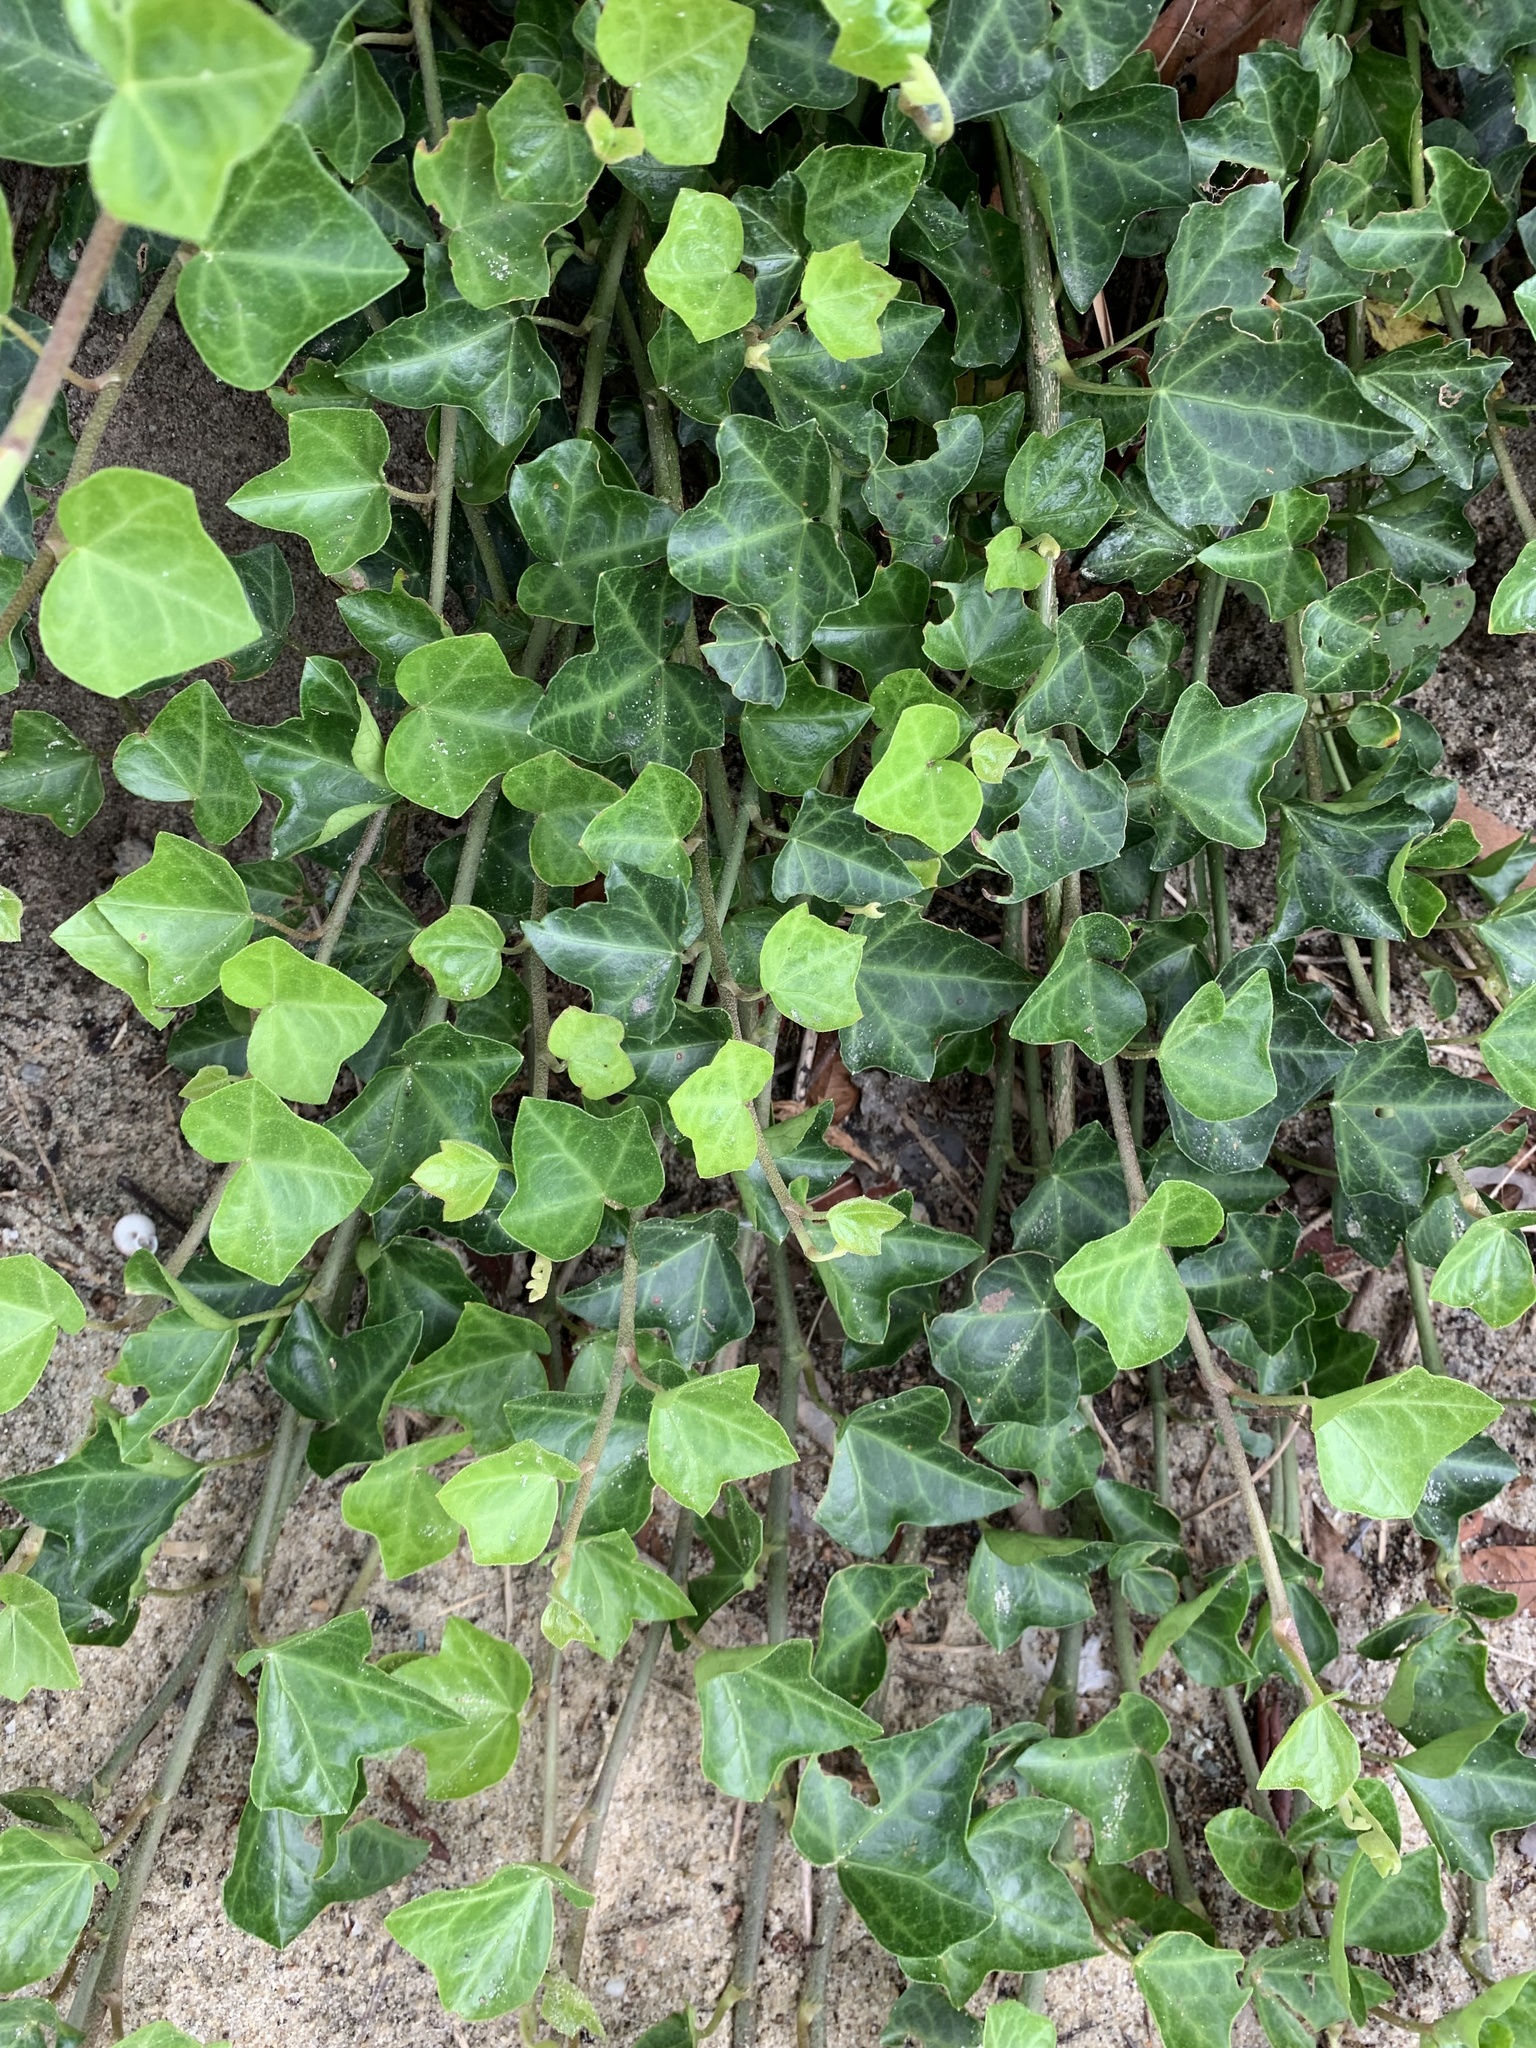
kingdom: Plantae
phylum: Tracheophyta
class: Magnoliopsida
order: Apiales
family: Araliaceae
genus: Hedera
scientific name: Hedera helix
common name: Ivy
